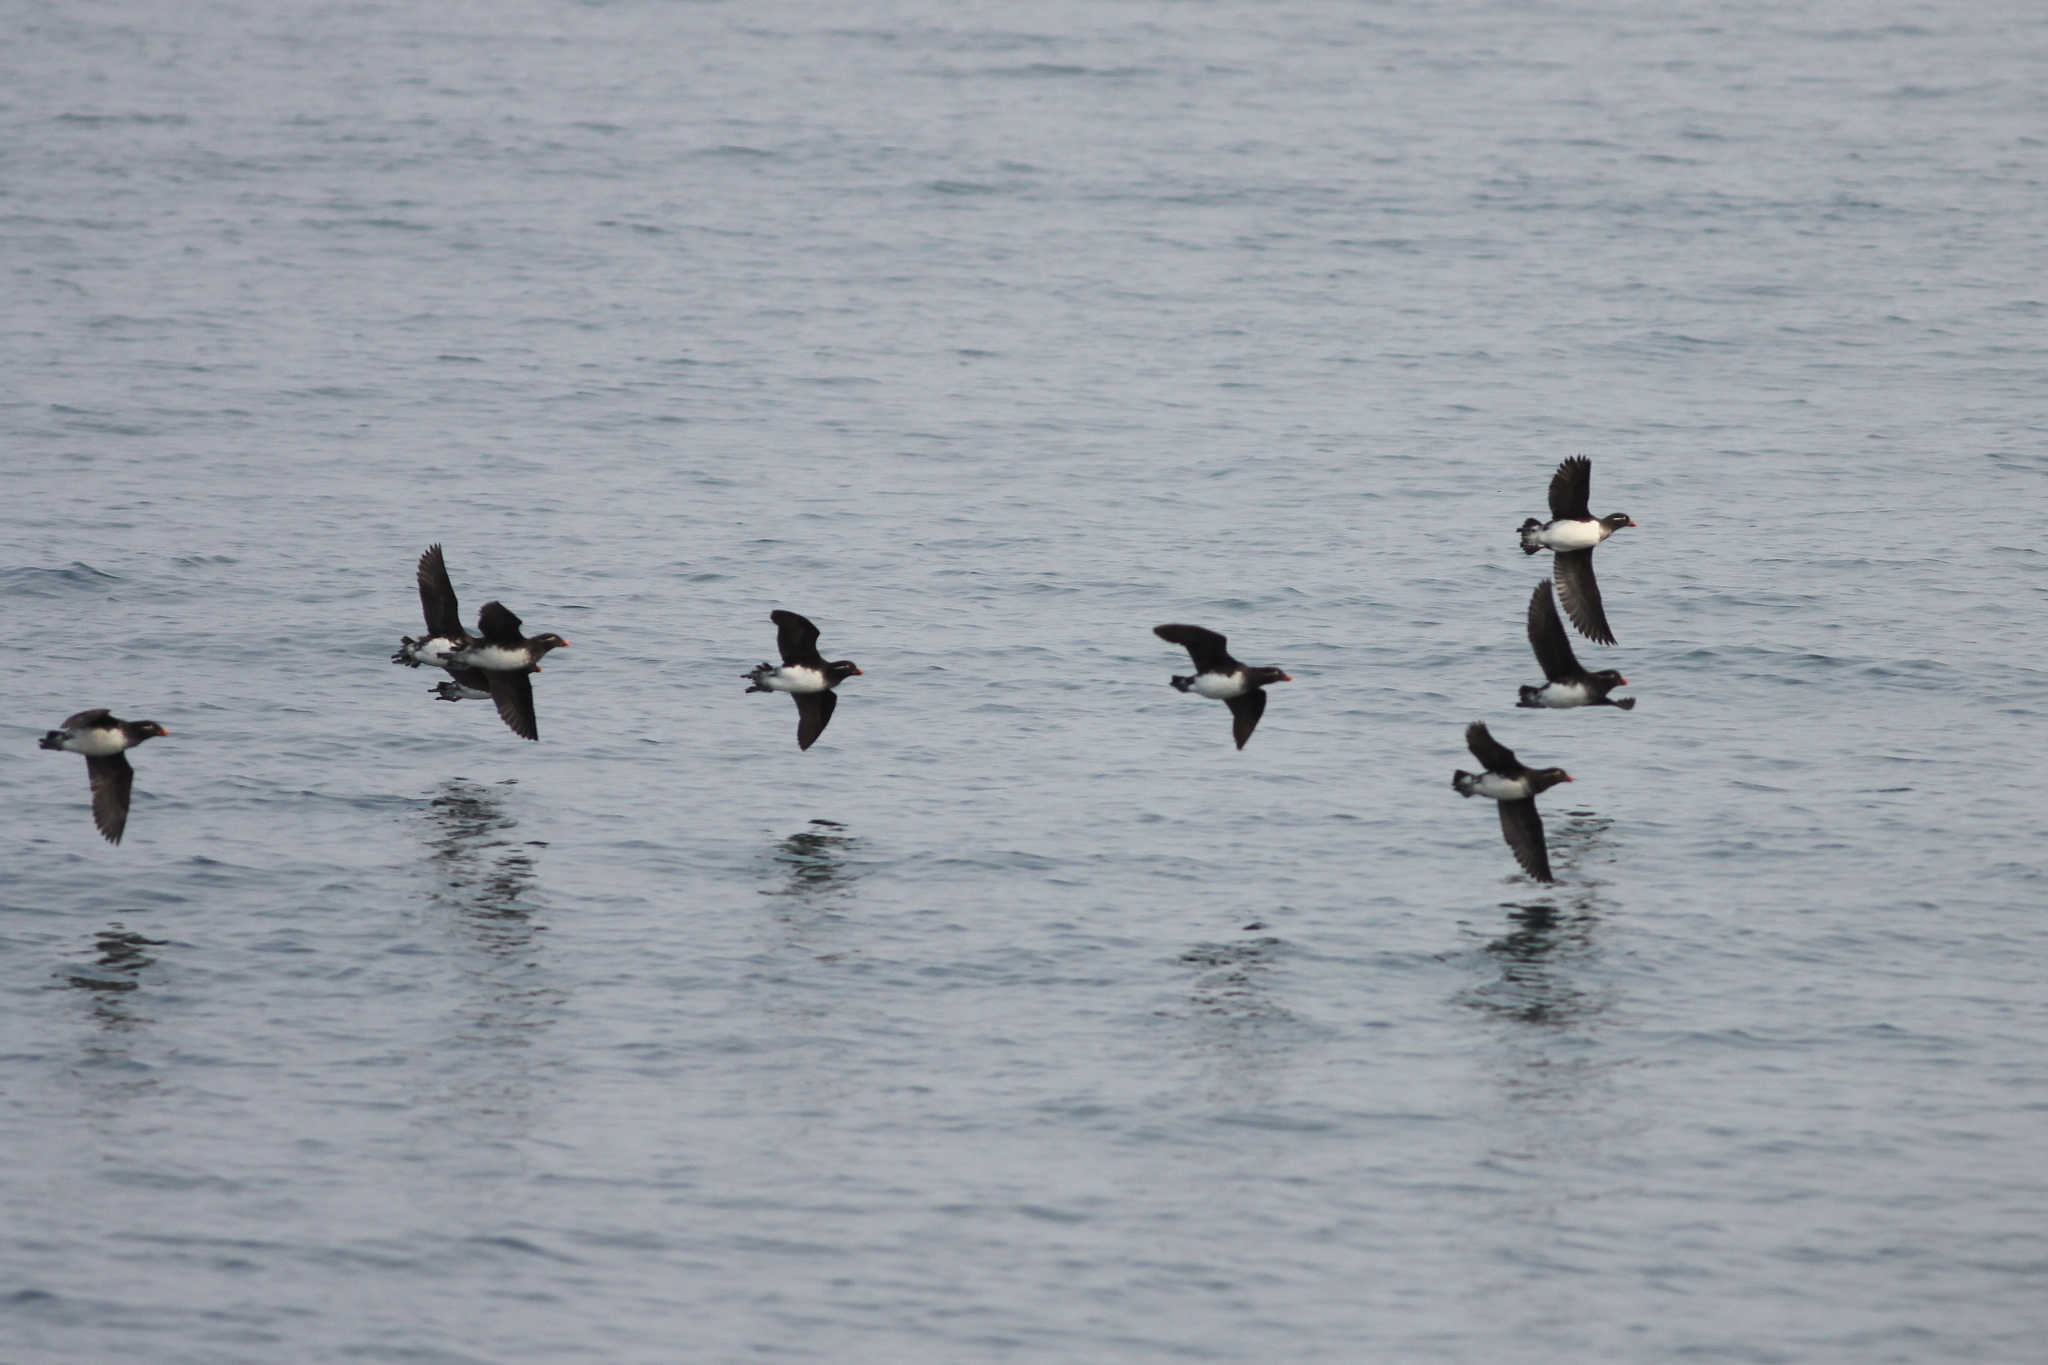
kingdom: Animalia
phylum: Chordata
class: Aves
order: Charadriiformes
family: Alcidae
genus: Aethia
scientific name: Aethia psittacula
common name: Parakeet auklet
